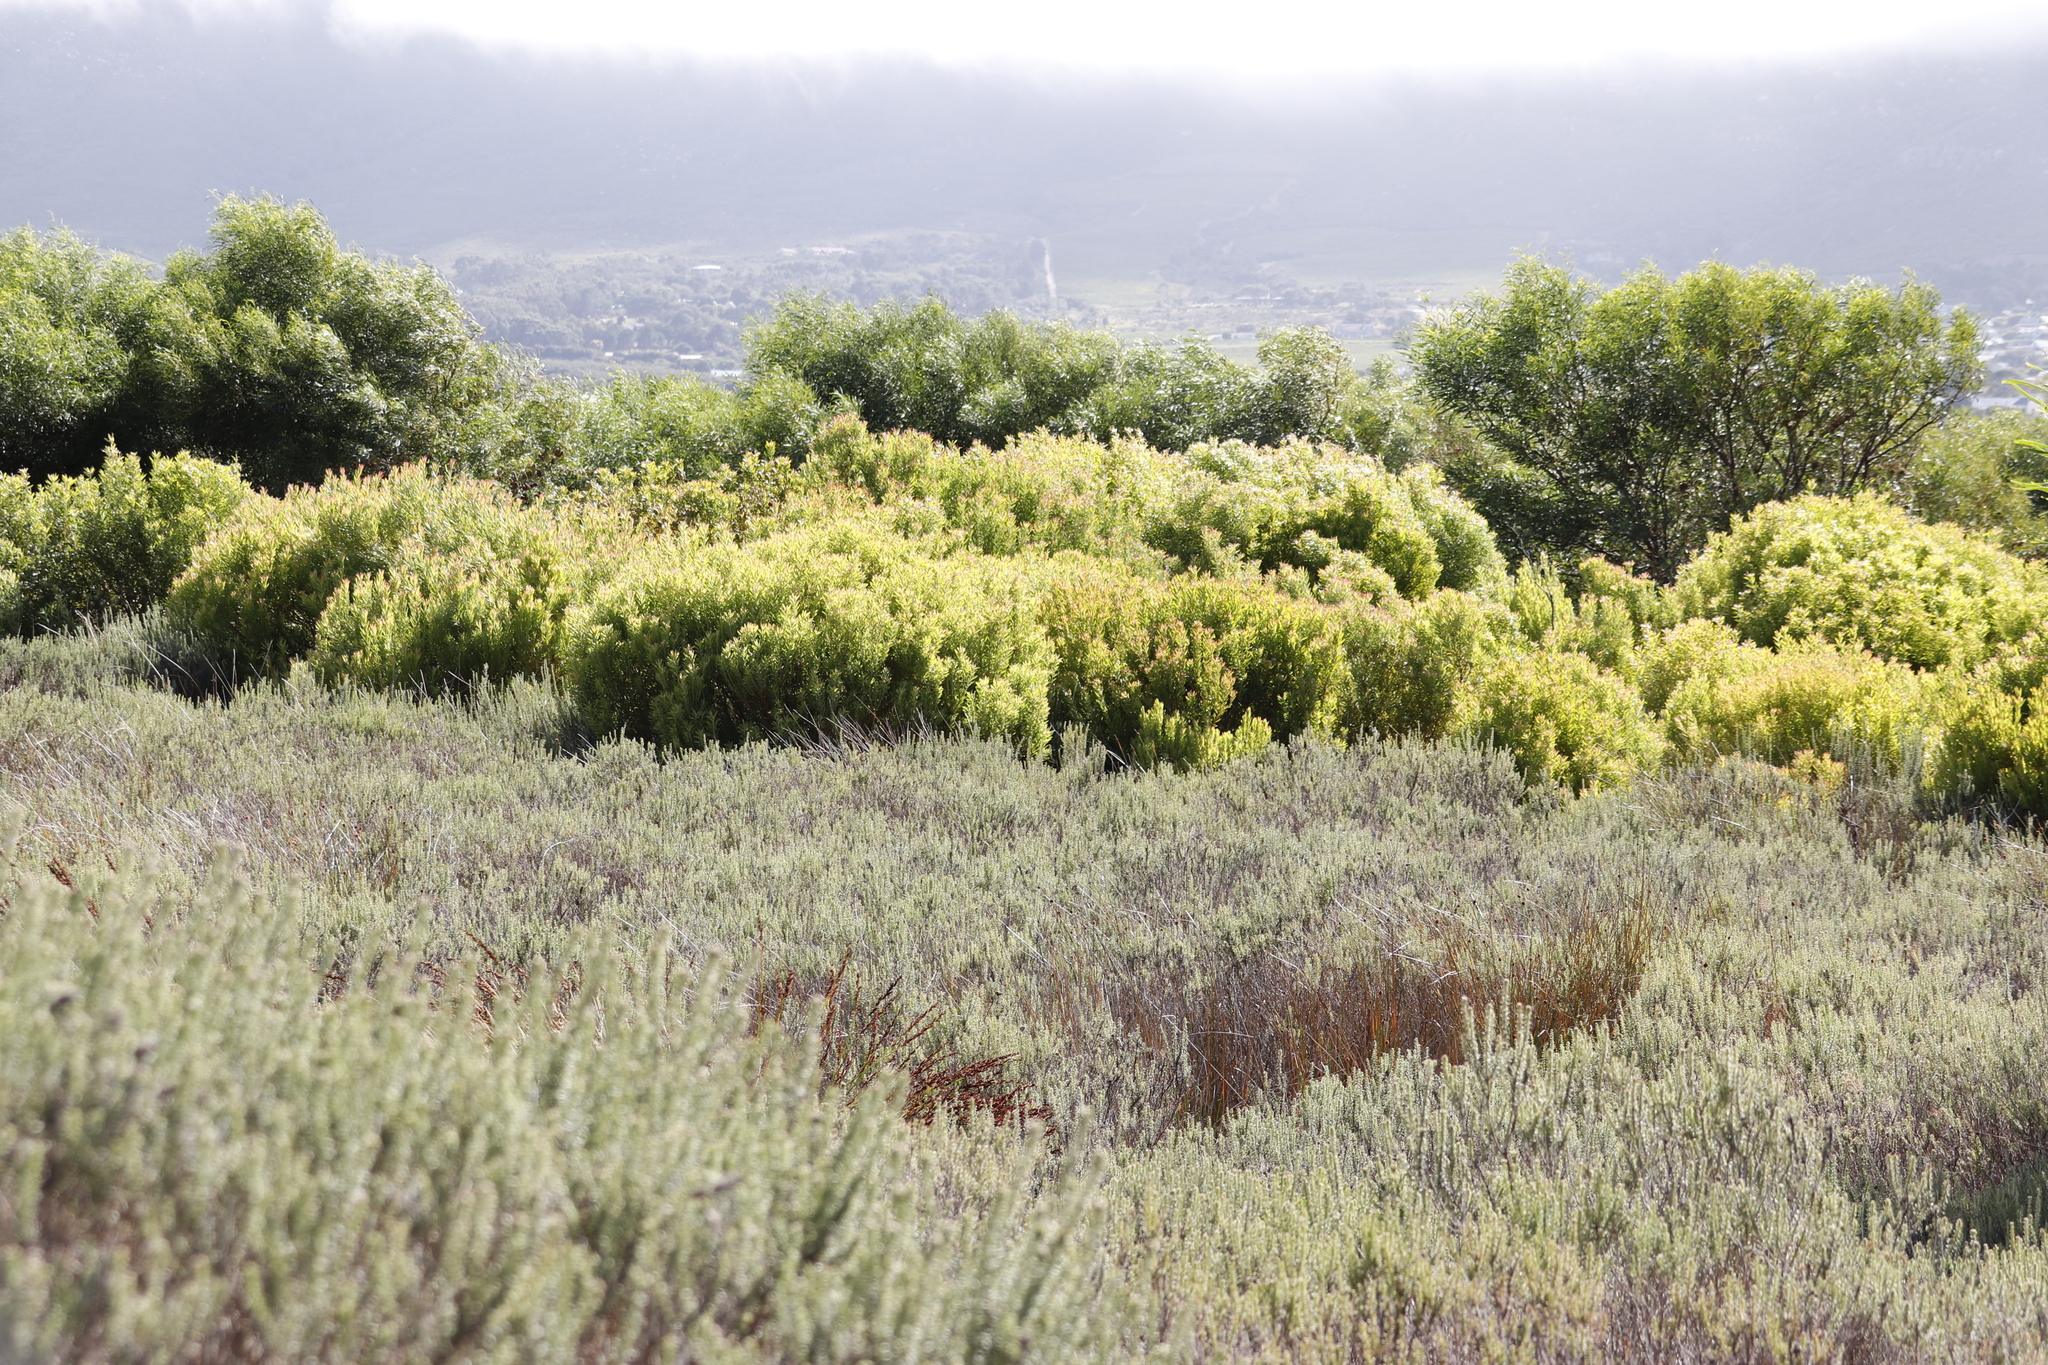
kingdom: Plantae
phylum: Tracheophyta
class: Magnoliopsida
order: Proteales
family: Proteaceae
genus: Leucadendron
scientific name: Leucadendron coniferum
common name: Dune conebush
